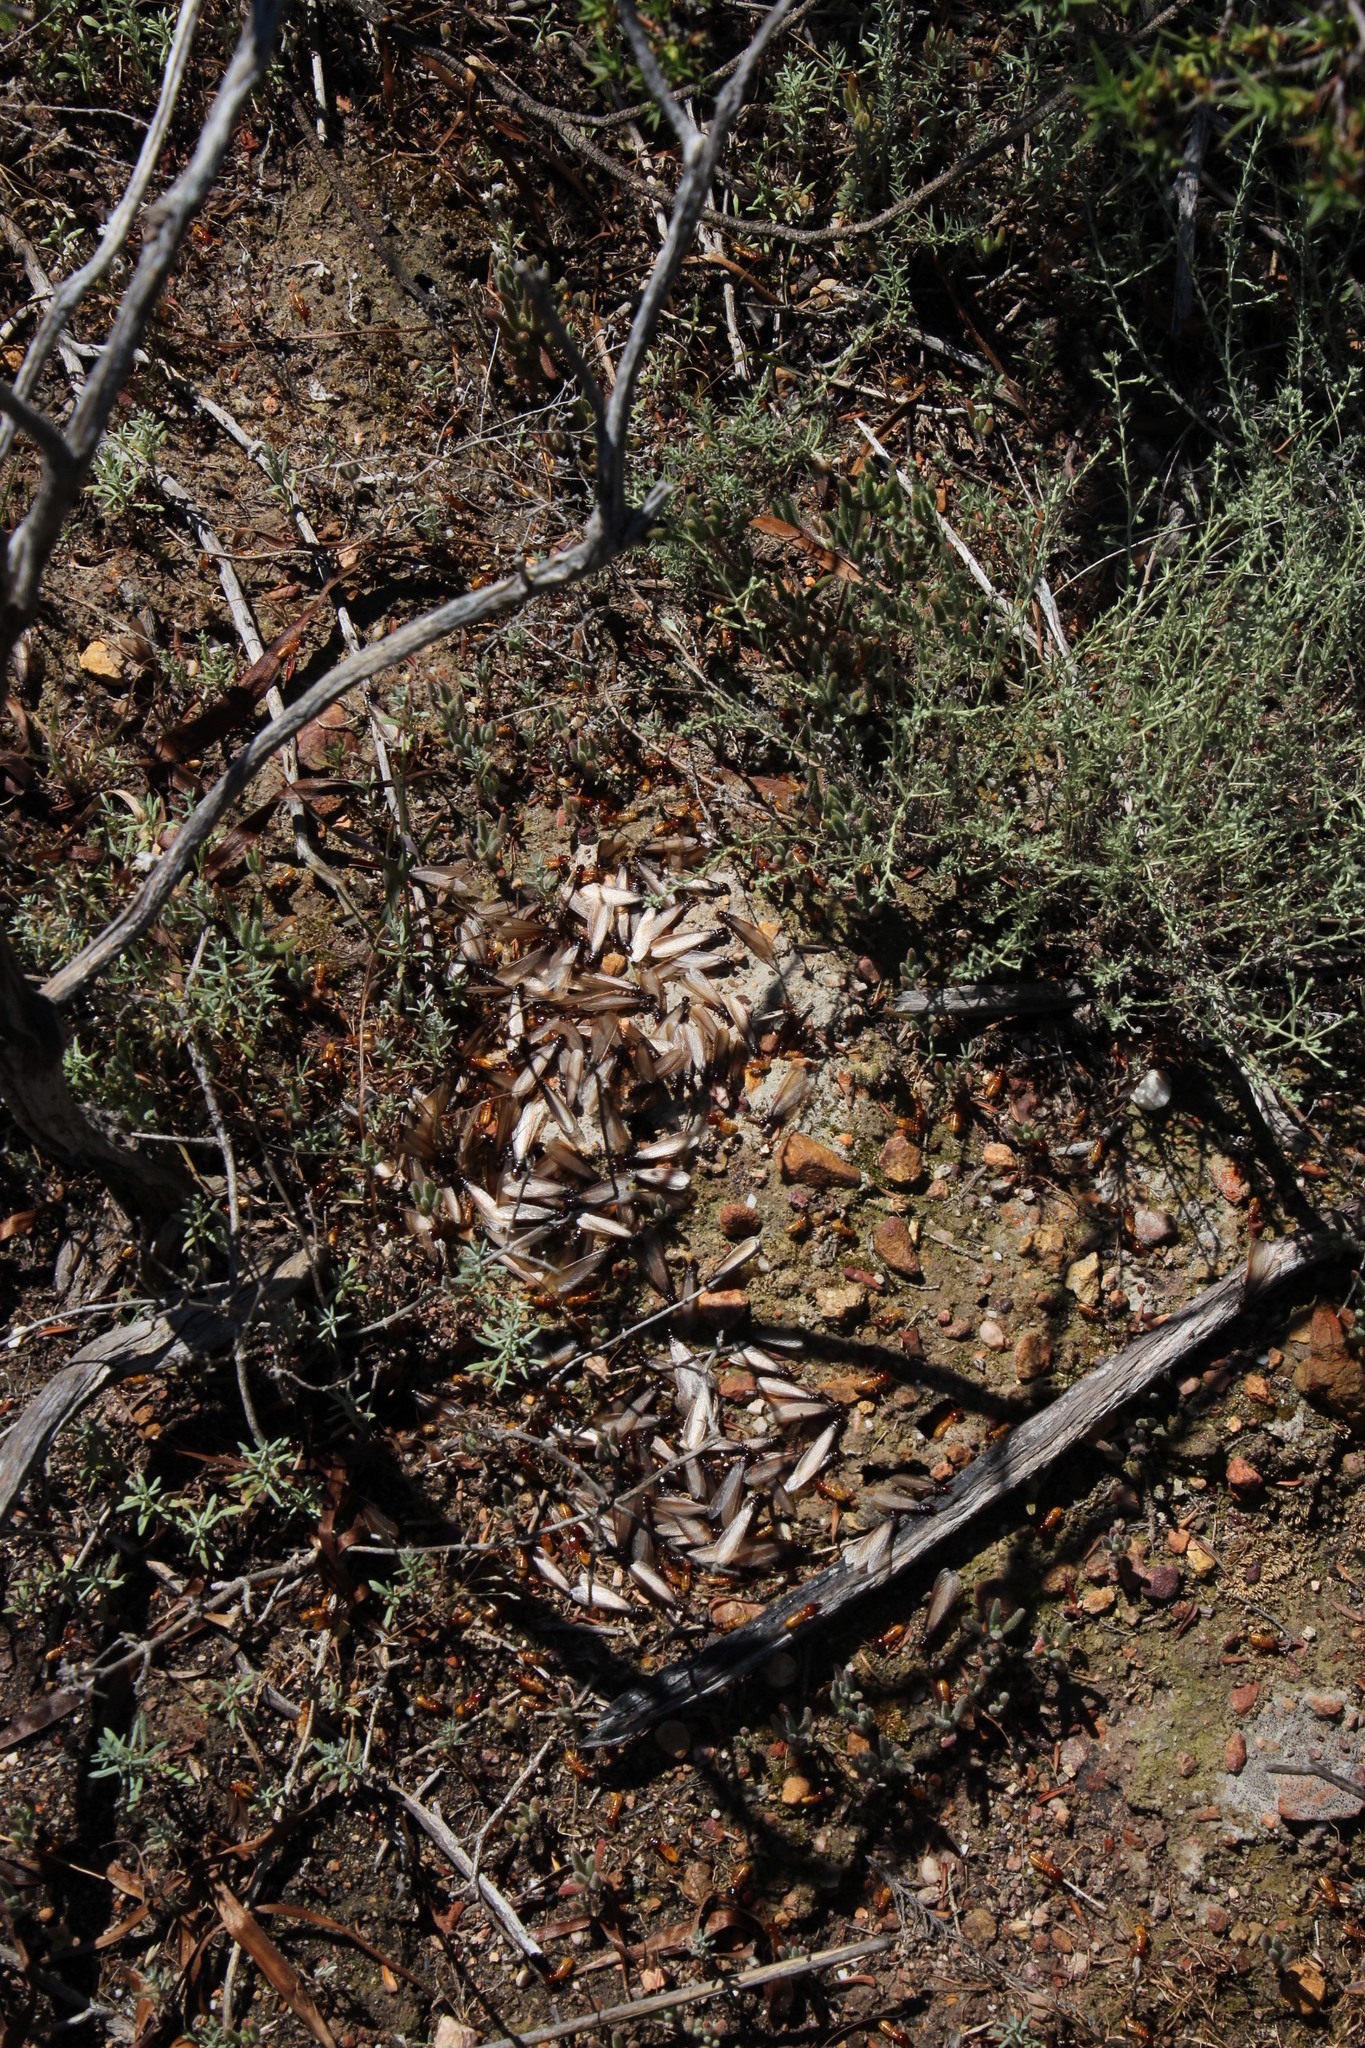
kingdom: Animalia
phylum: Arthropoda
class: Insecta
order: Blattodea
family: Hodotermitidae
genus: Microhodotermes
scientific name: Microhodotermes viator
